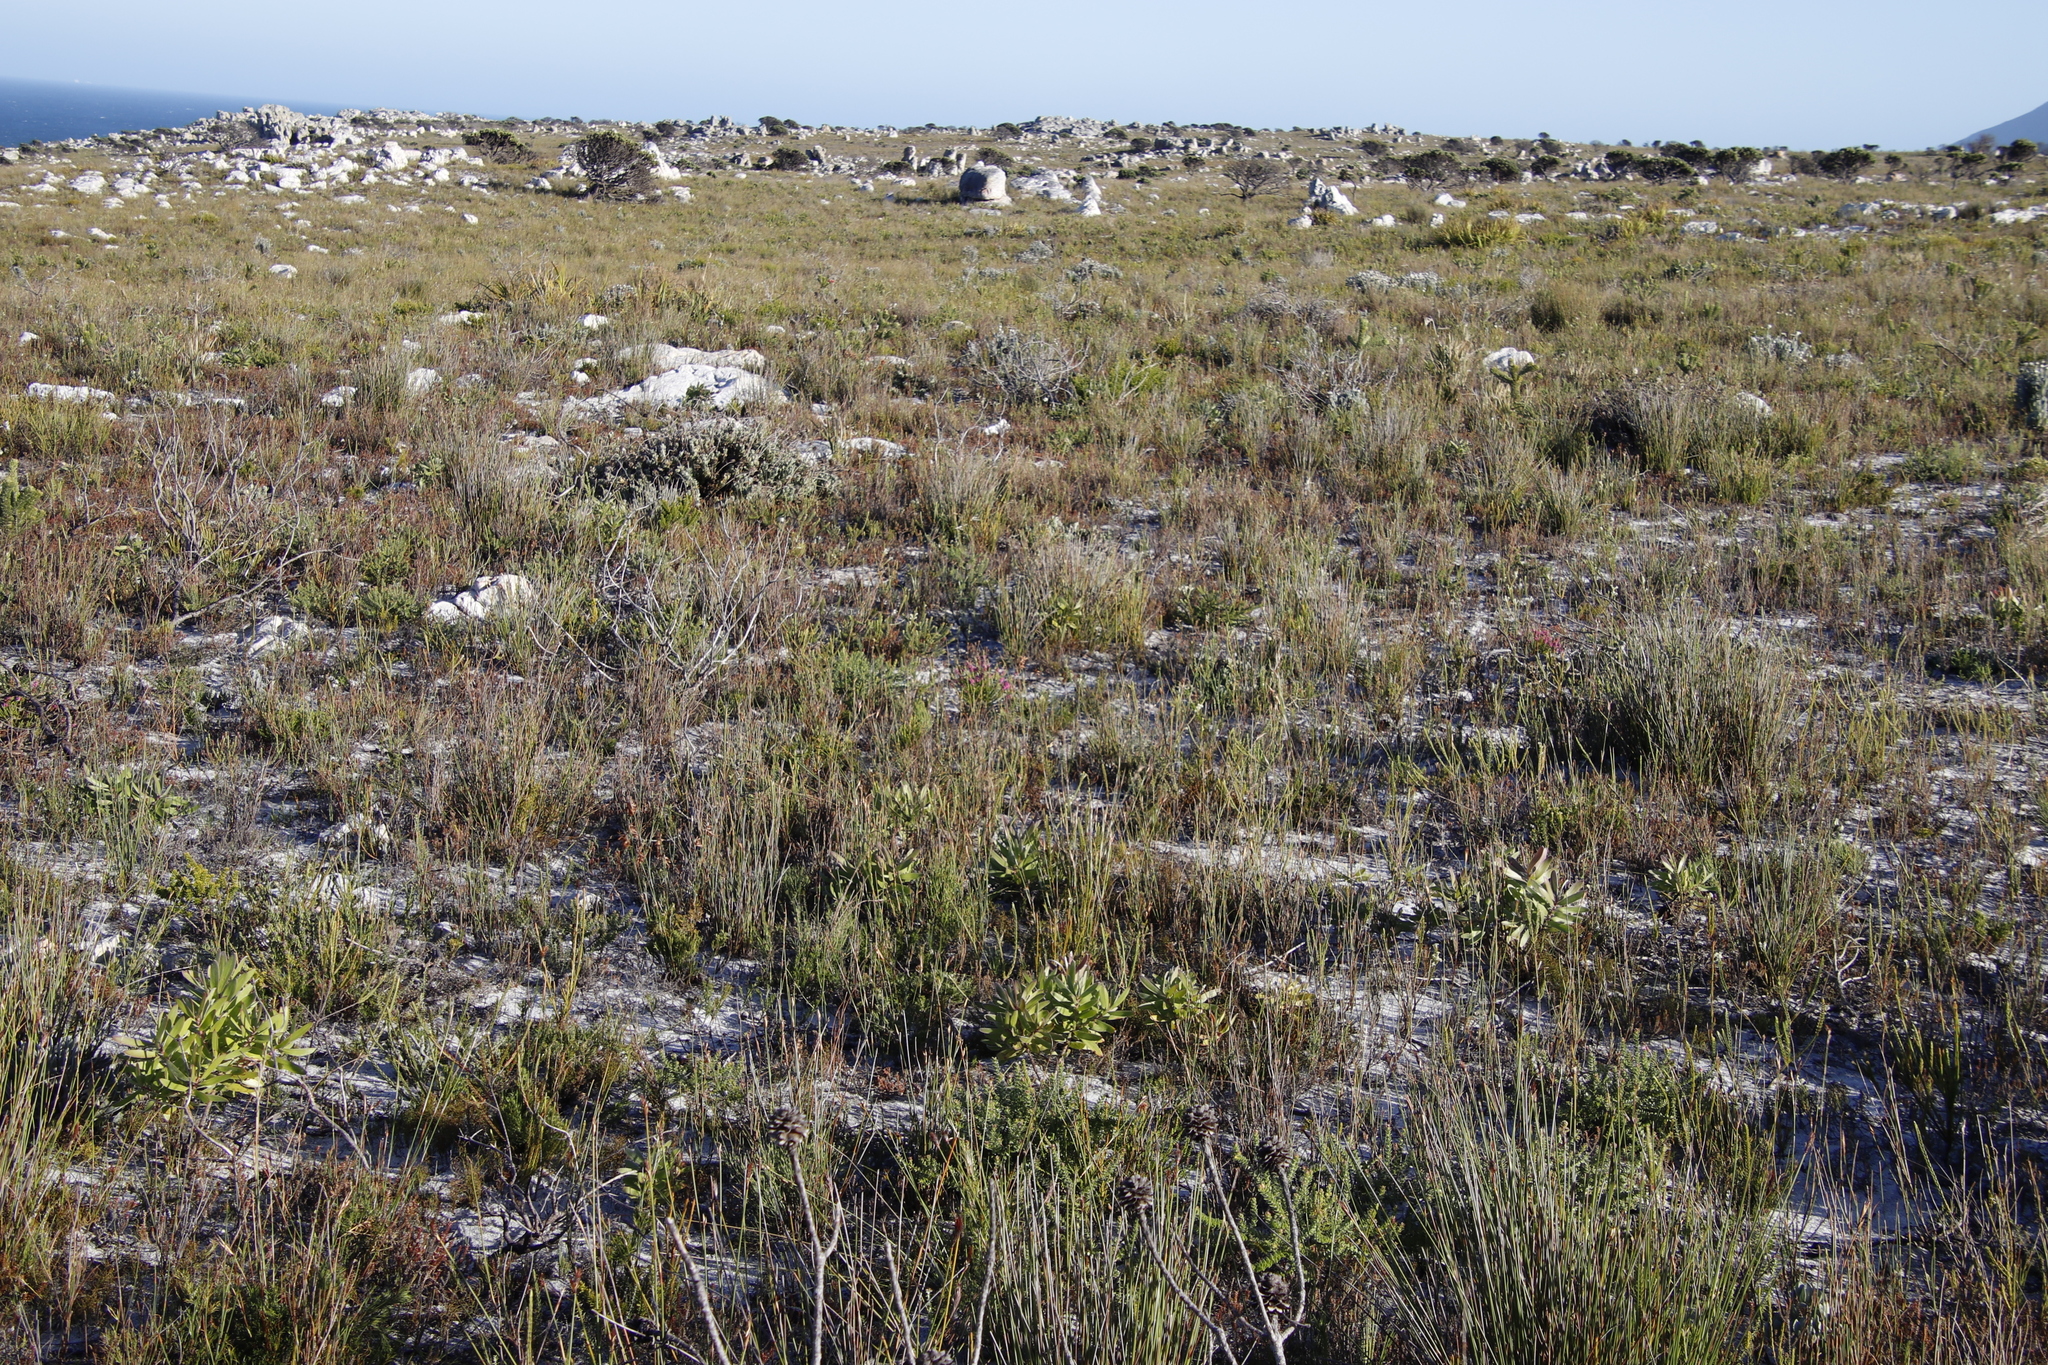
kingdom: Plantae
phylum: Tracheophyta
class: Magnoliopsida
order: Ericales
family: Ericaceae
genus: Erica
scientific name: Erica pulchella
